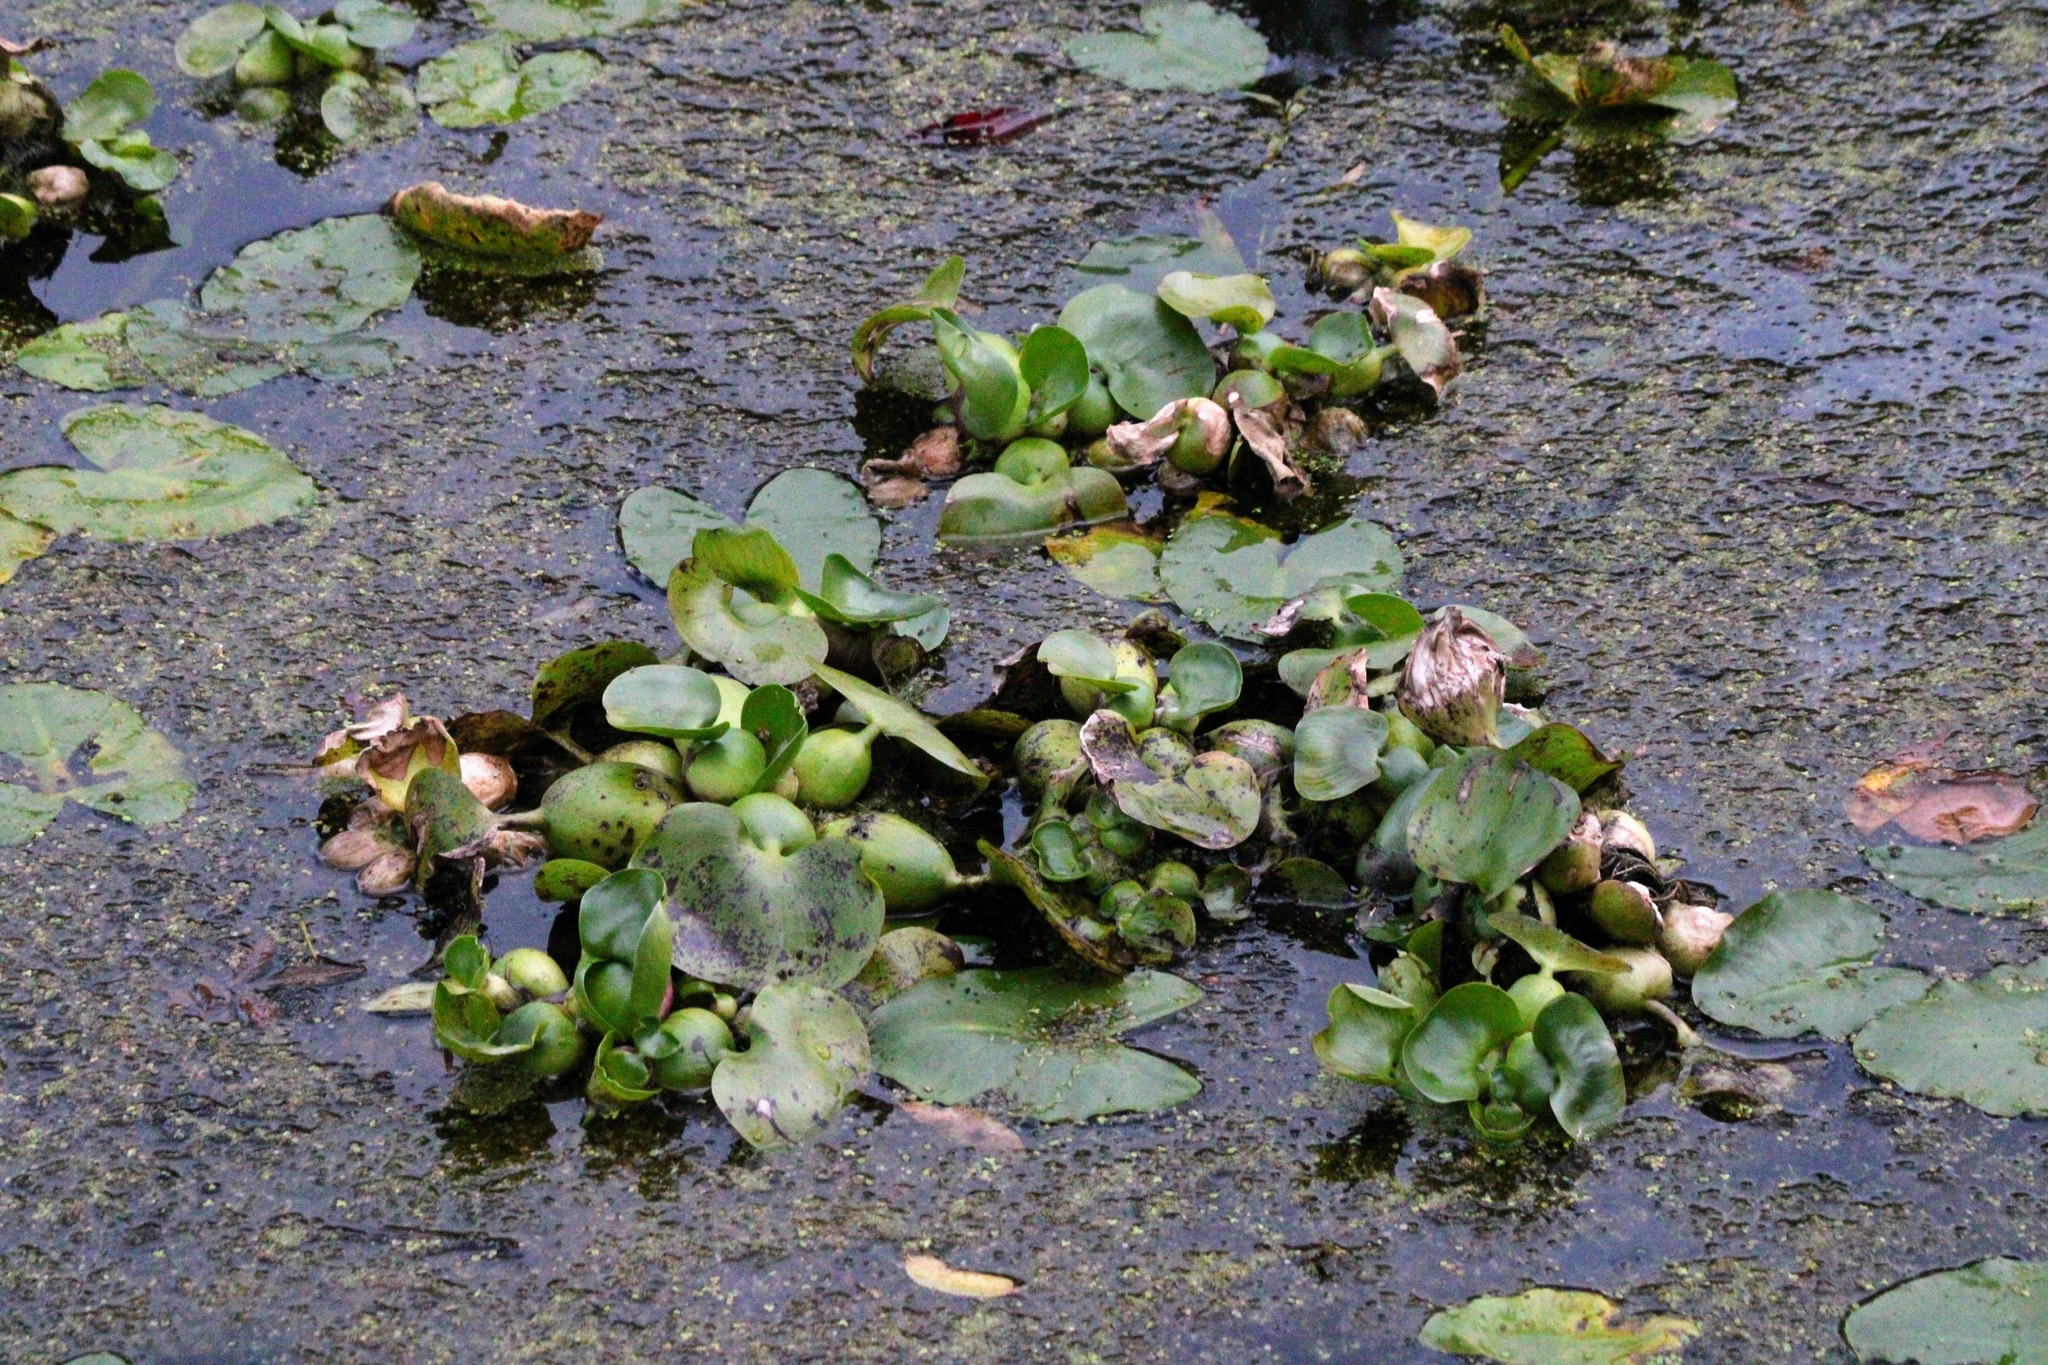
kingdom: Plantae
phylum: Tracheophyta
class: Liliopsida
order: Commelinales
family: Pontederiaceae
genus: Pontederia
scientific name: Pontederia crassipes
